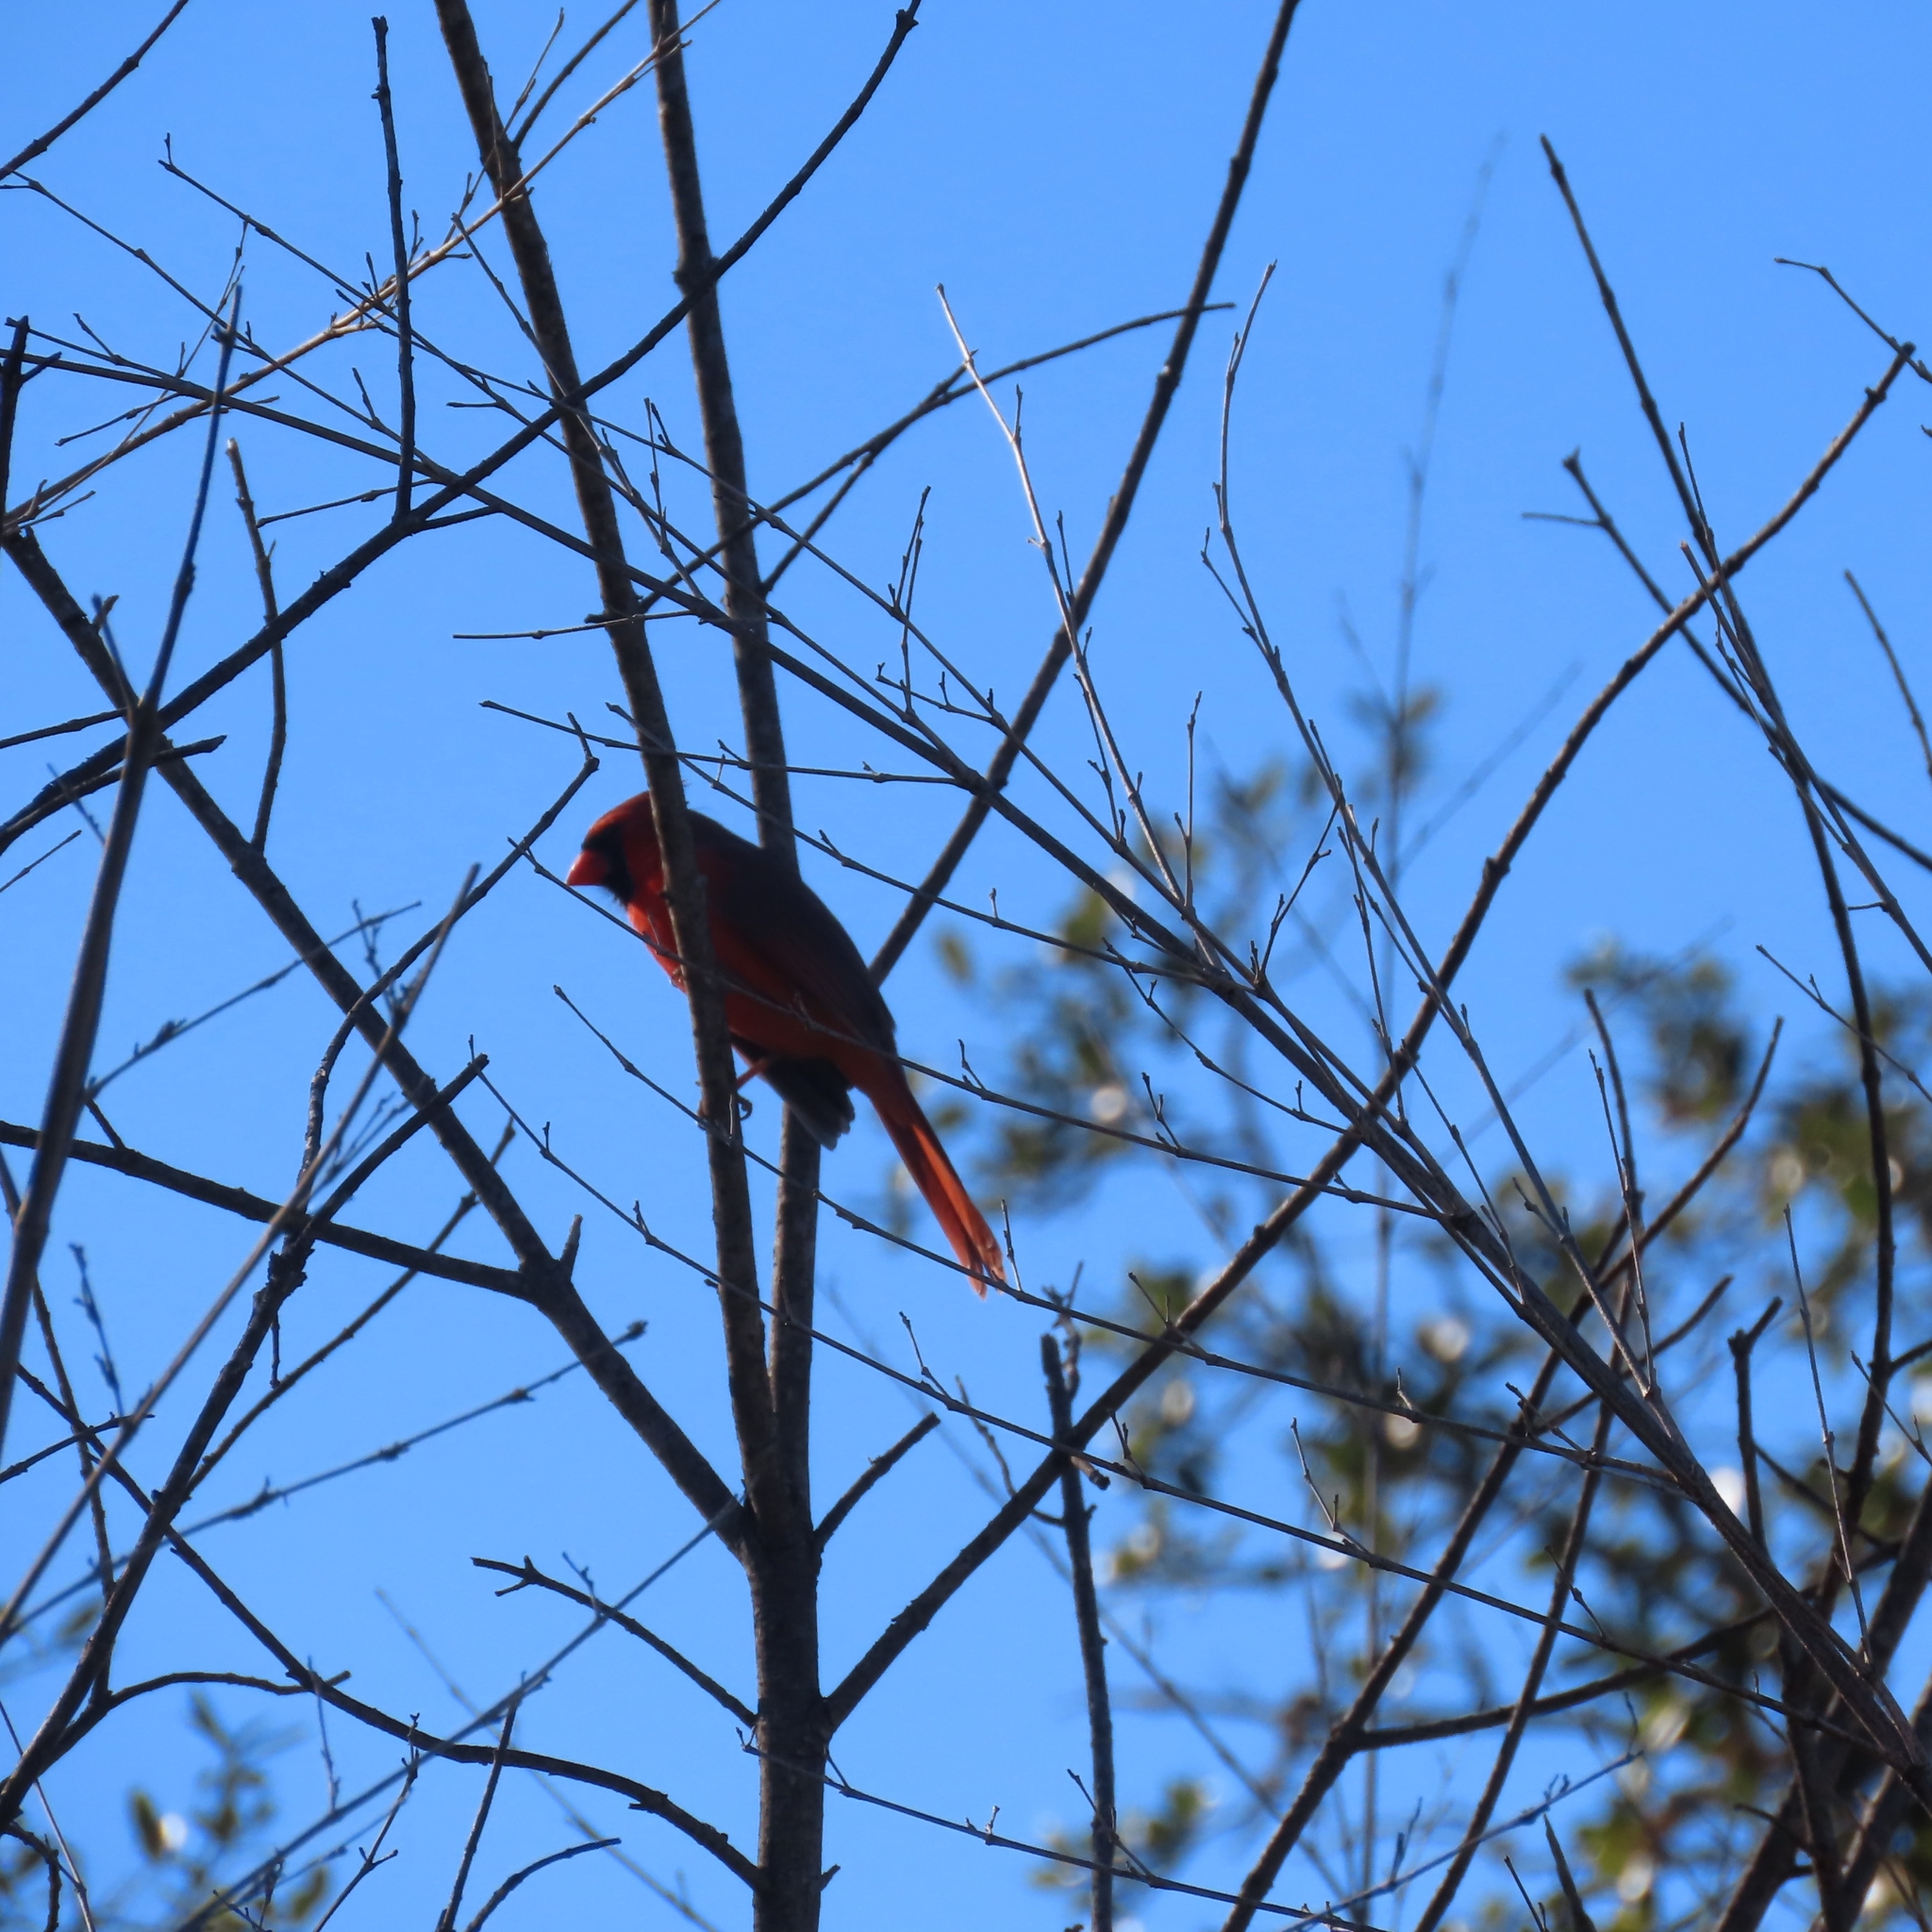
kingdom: Animalia
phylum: Chordata
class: Aves
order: Passeriformes
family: Cardinalidae
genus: Cardinalis
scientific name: Cardinalis cardinalis
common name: Northern cardinal
